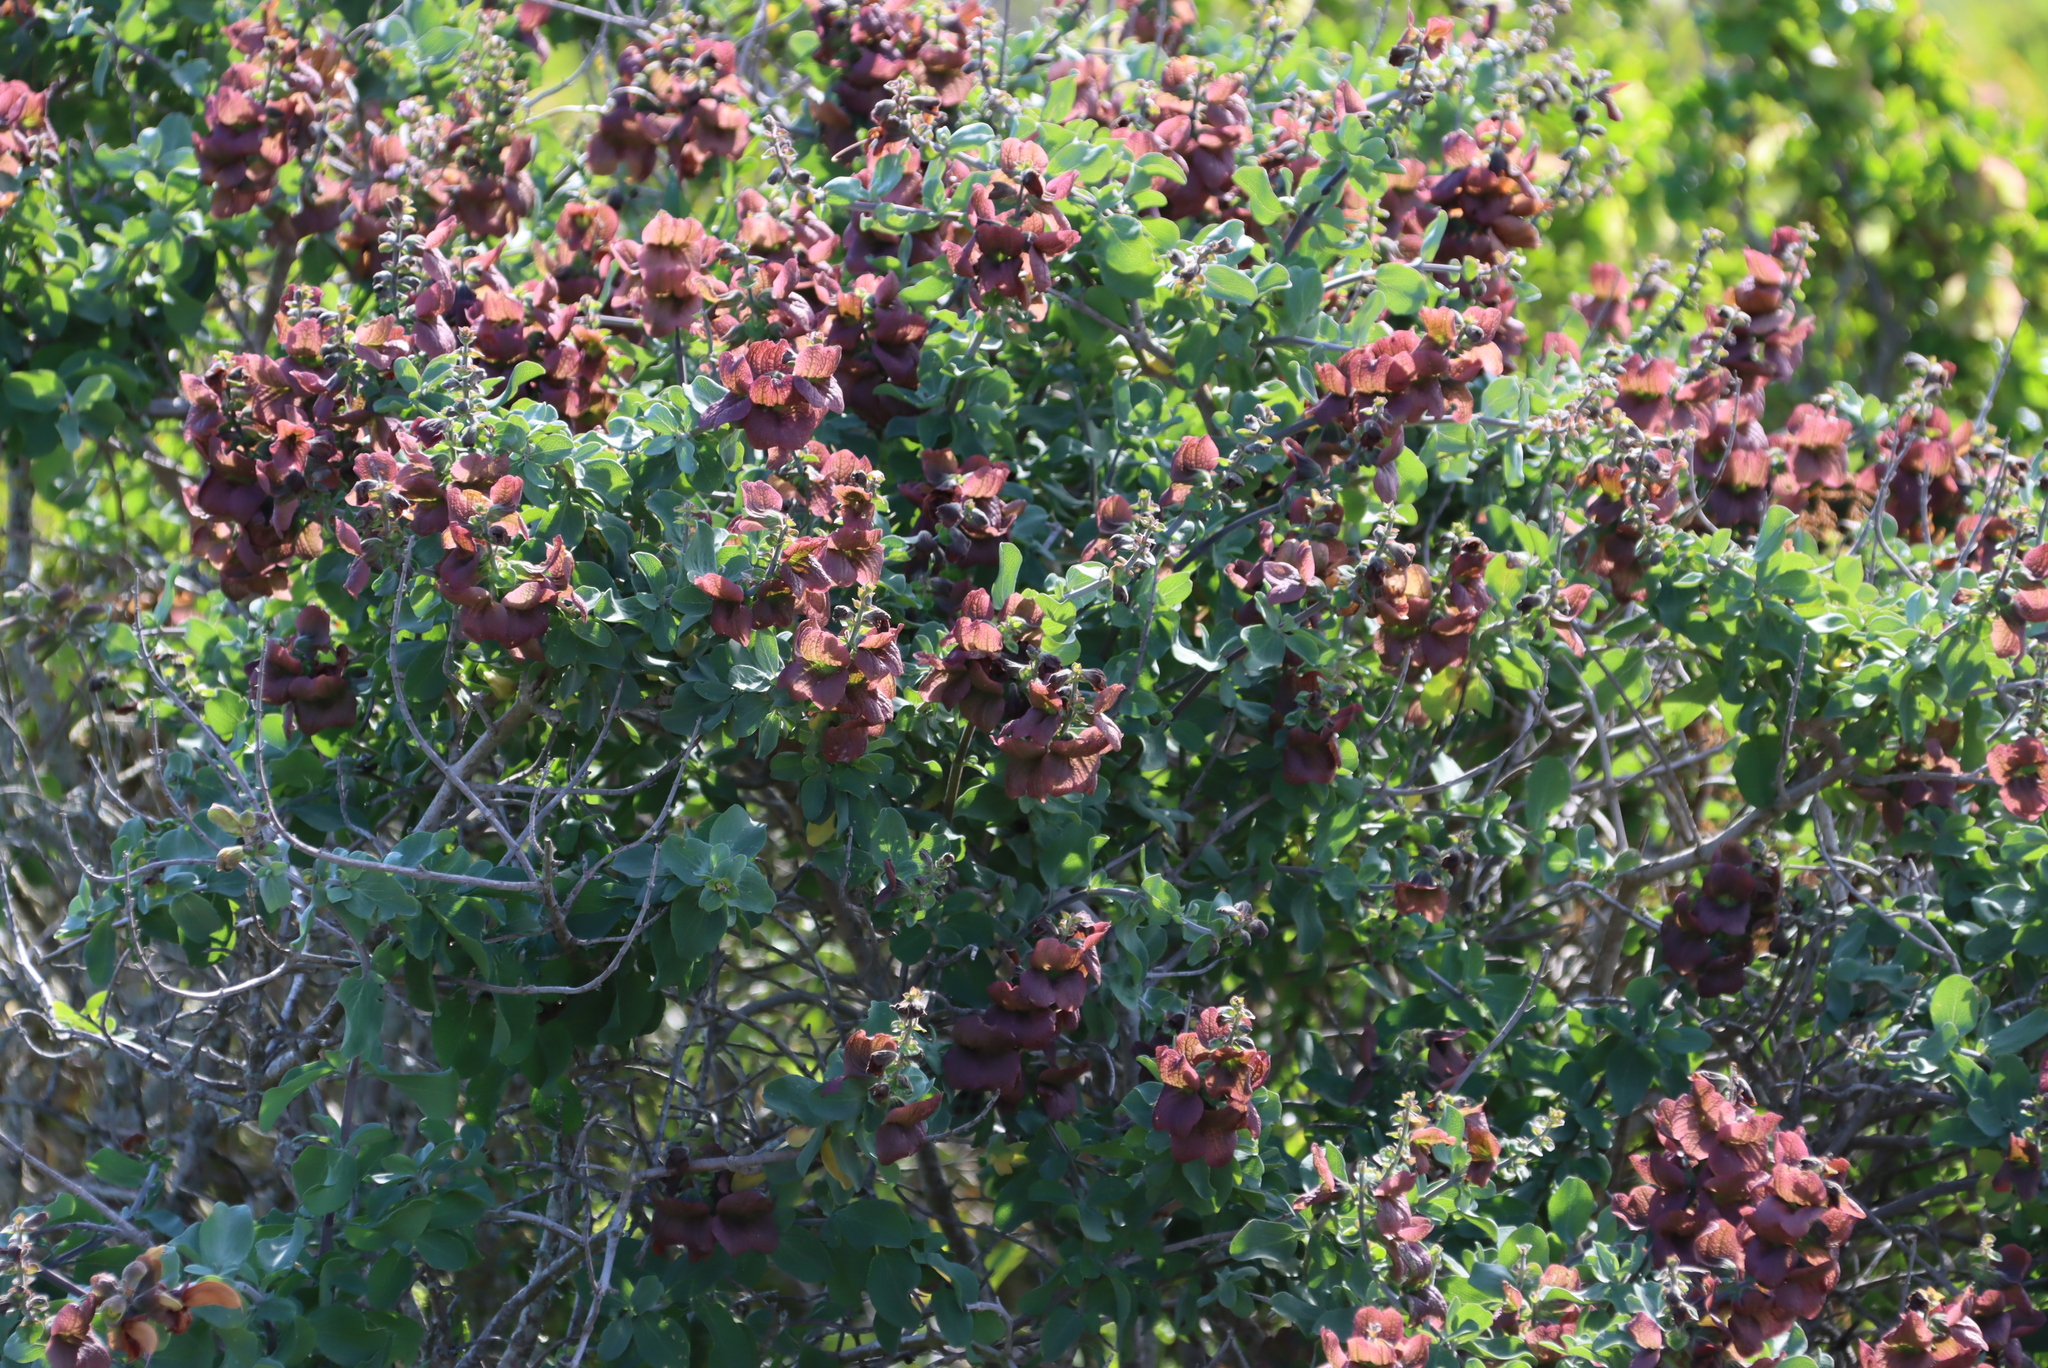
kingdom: Plantae
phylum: Tracheophyta
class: Magnoliopsida
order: Lamiales
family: Lamiaceae
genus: Salvia
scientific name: Salvia aurea
